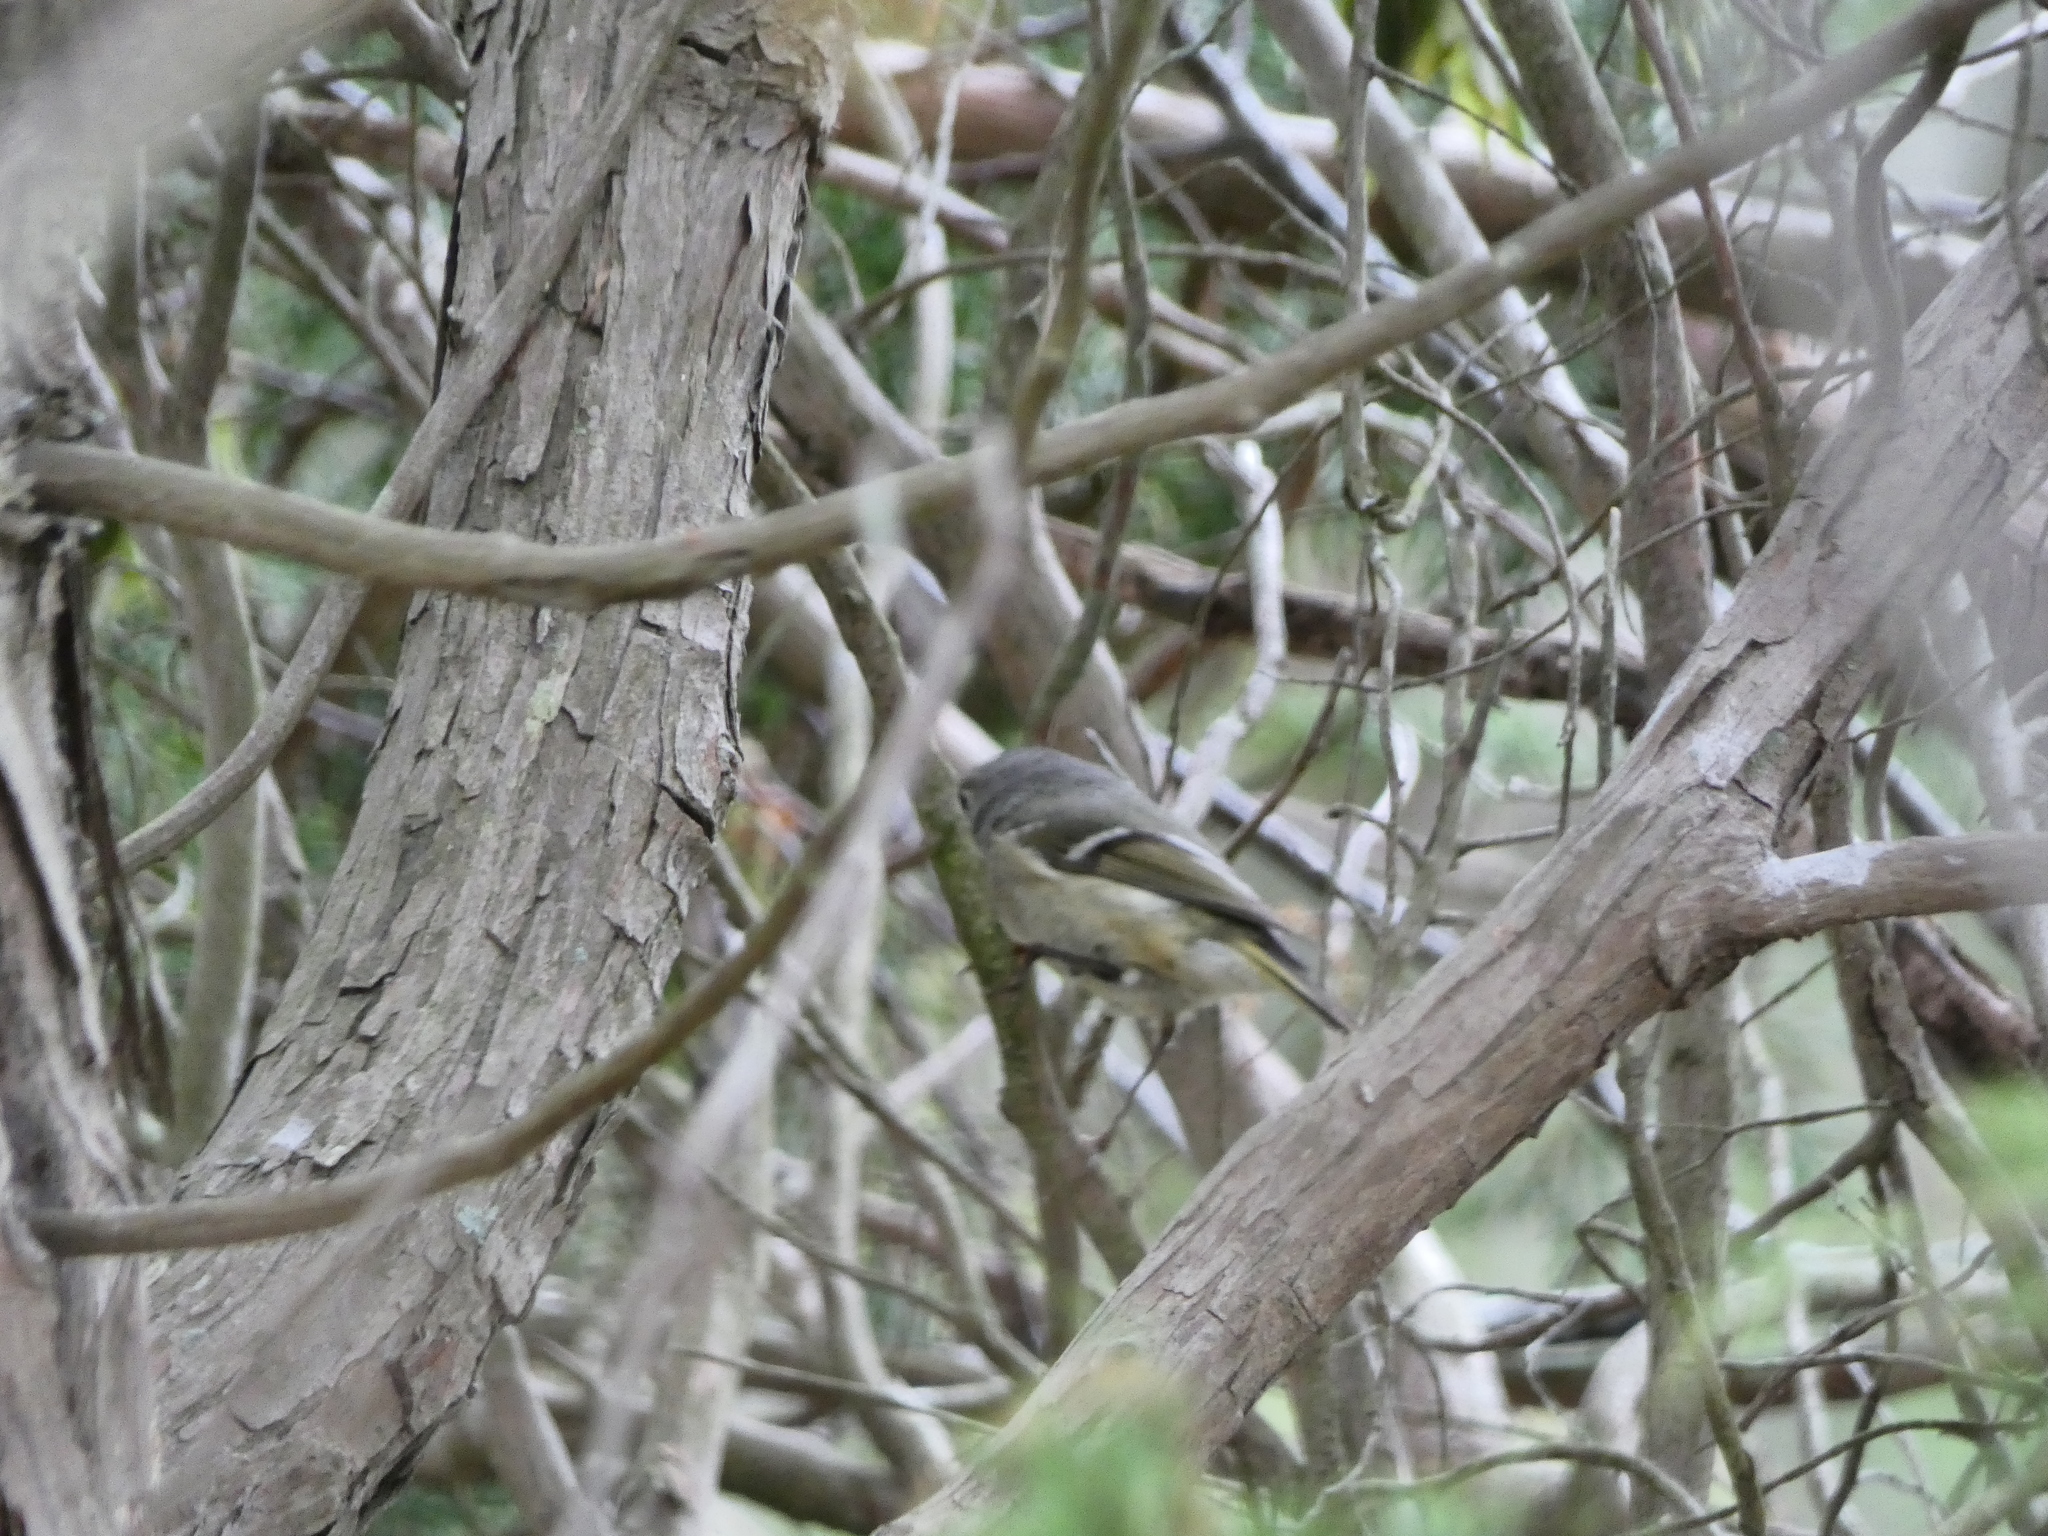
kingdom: Animalia
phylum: Chordata
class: Aves
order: Passeriformes
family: Regulidae
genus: Regulus
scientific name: Regulus calendula
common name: Ruby-crowned kinglet
